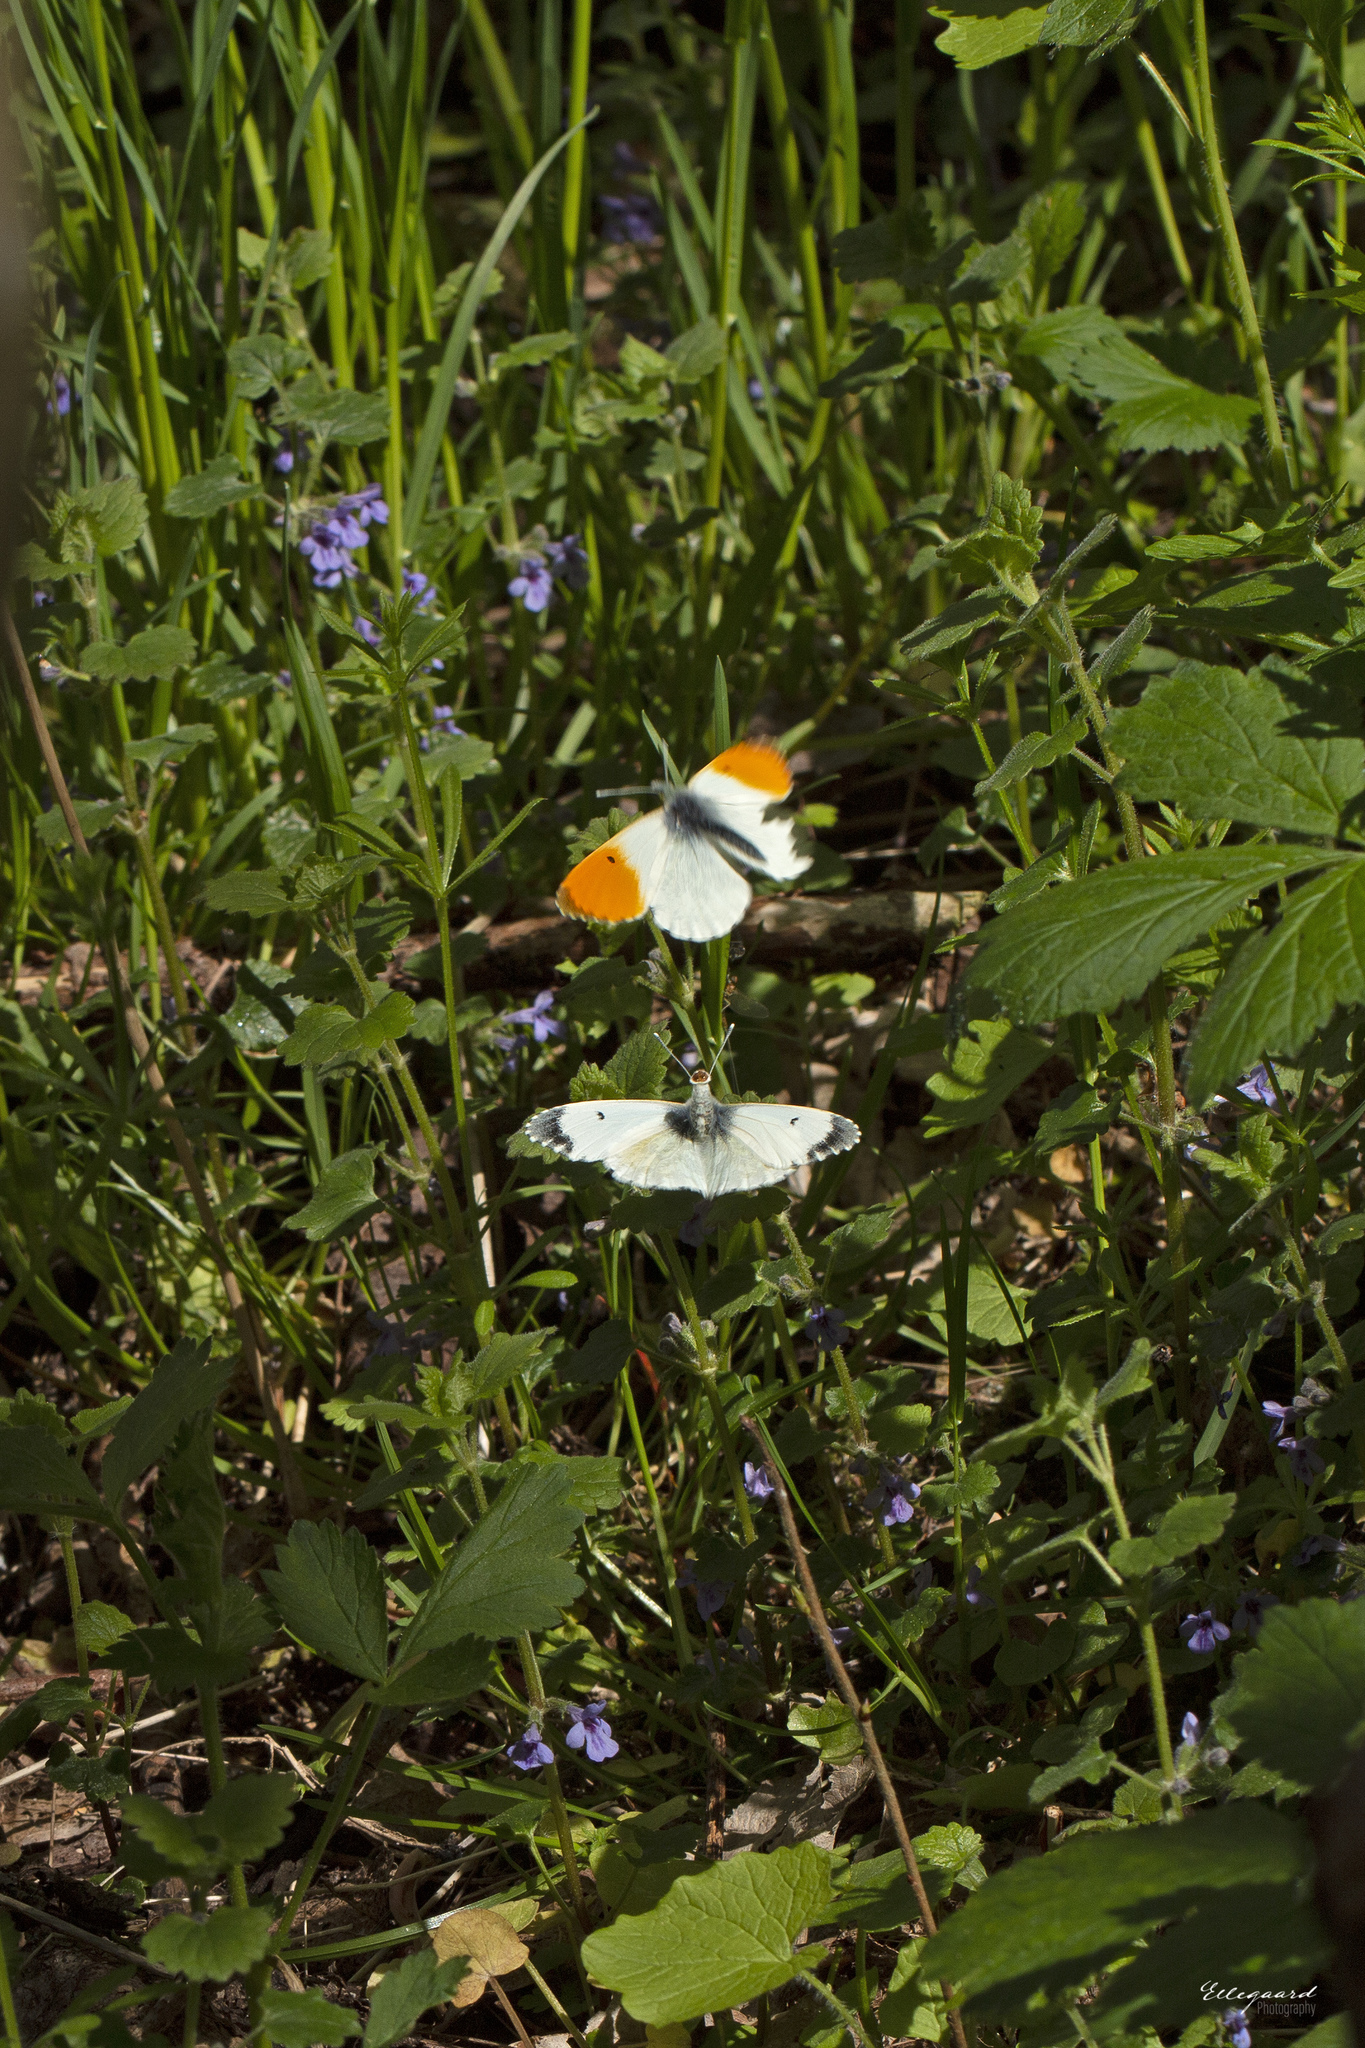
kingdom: Animalia
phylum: Arthropoda
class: Insecta
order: Lepidoptera
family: Pieridae
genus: Anthocharis
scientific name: Anthocharis cardamines
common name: Orange-tip
